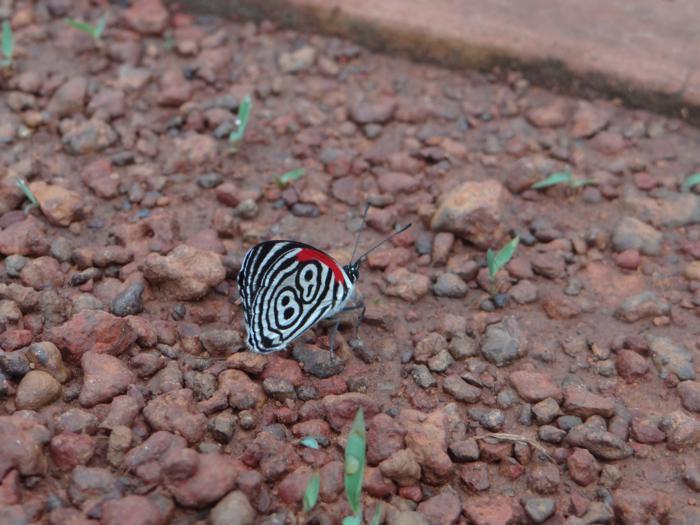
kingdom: Animalia
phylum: Arthropoda
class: Insecta
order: Lepidoptera
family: Nymphalidae
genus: Diaethria
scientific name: Diaethria neglecta
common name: Neglected eighty-eight
